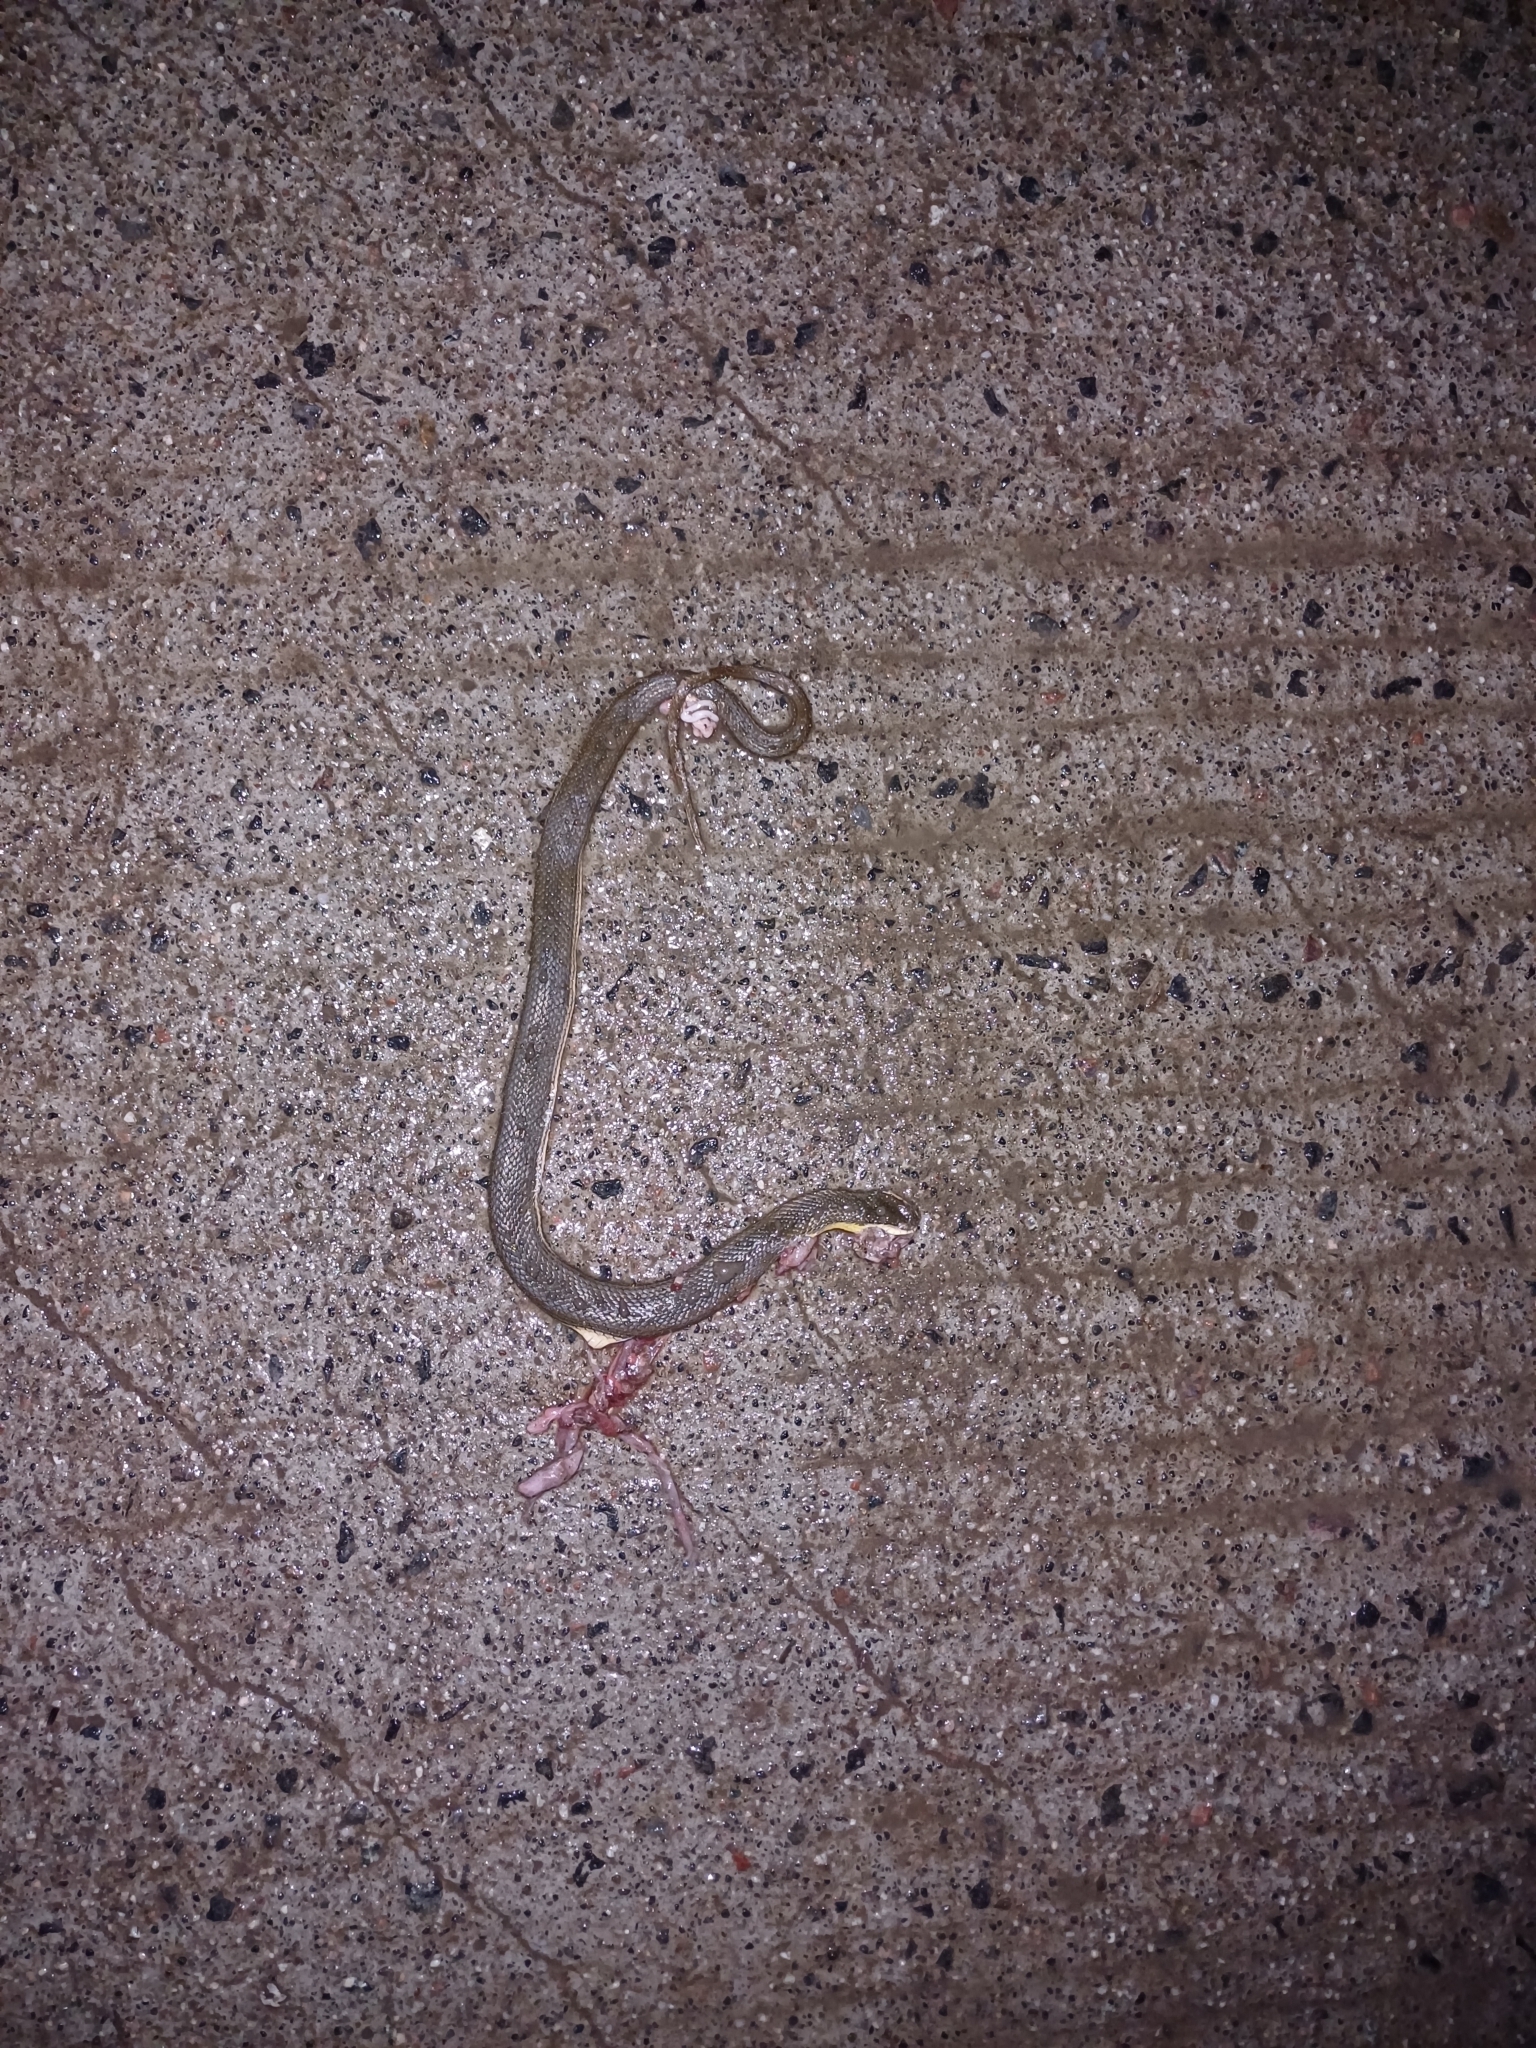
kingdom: Animalia
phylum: Chordata
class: Squamata
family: Colubridae
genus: Atretium
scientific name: Atretium schistosum
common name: Olive keelback wart snake
